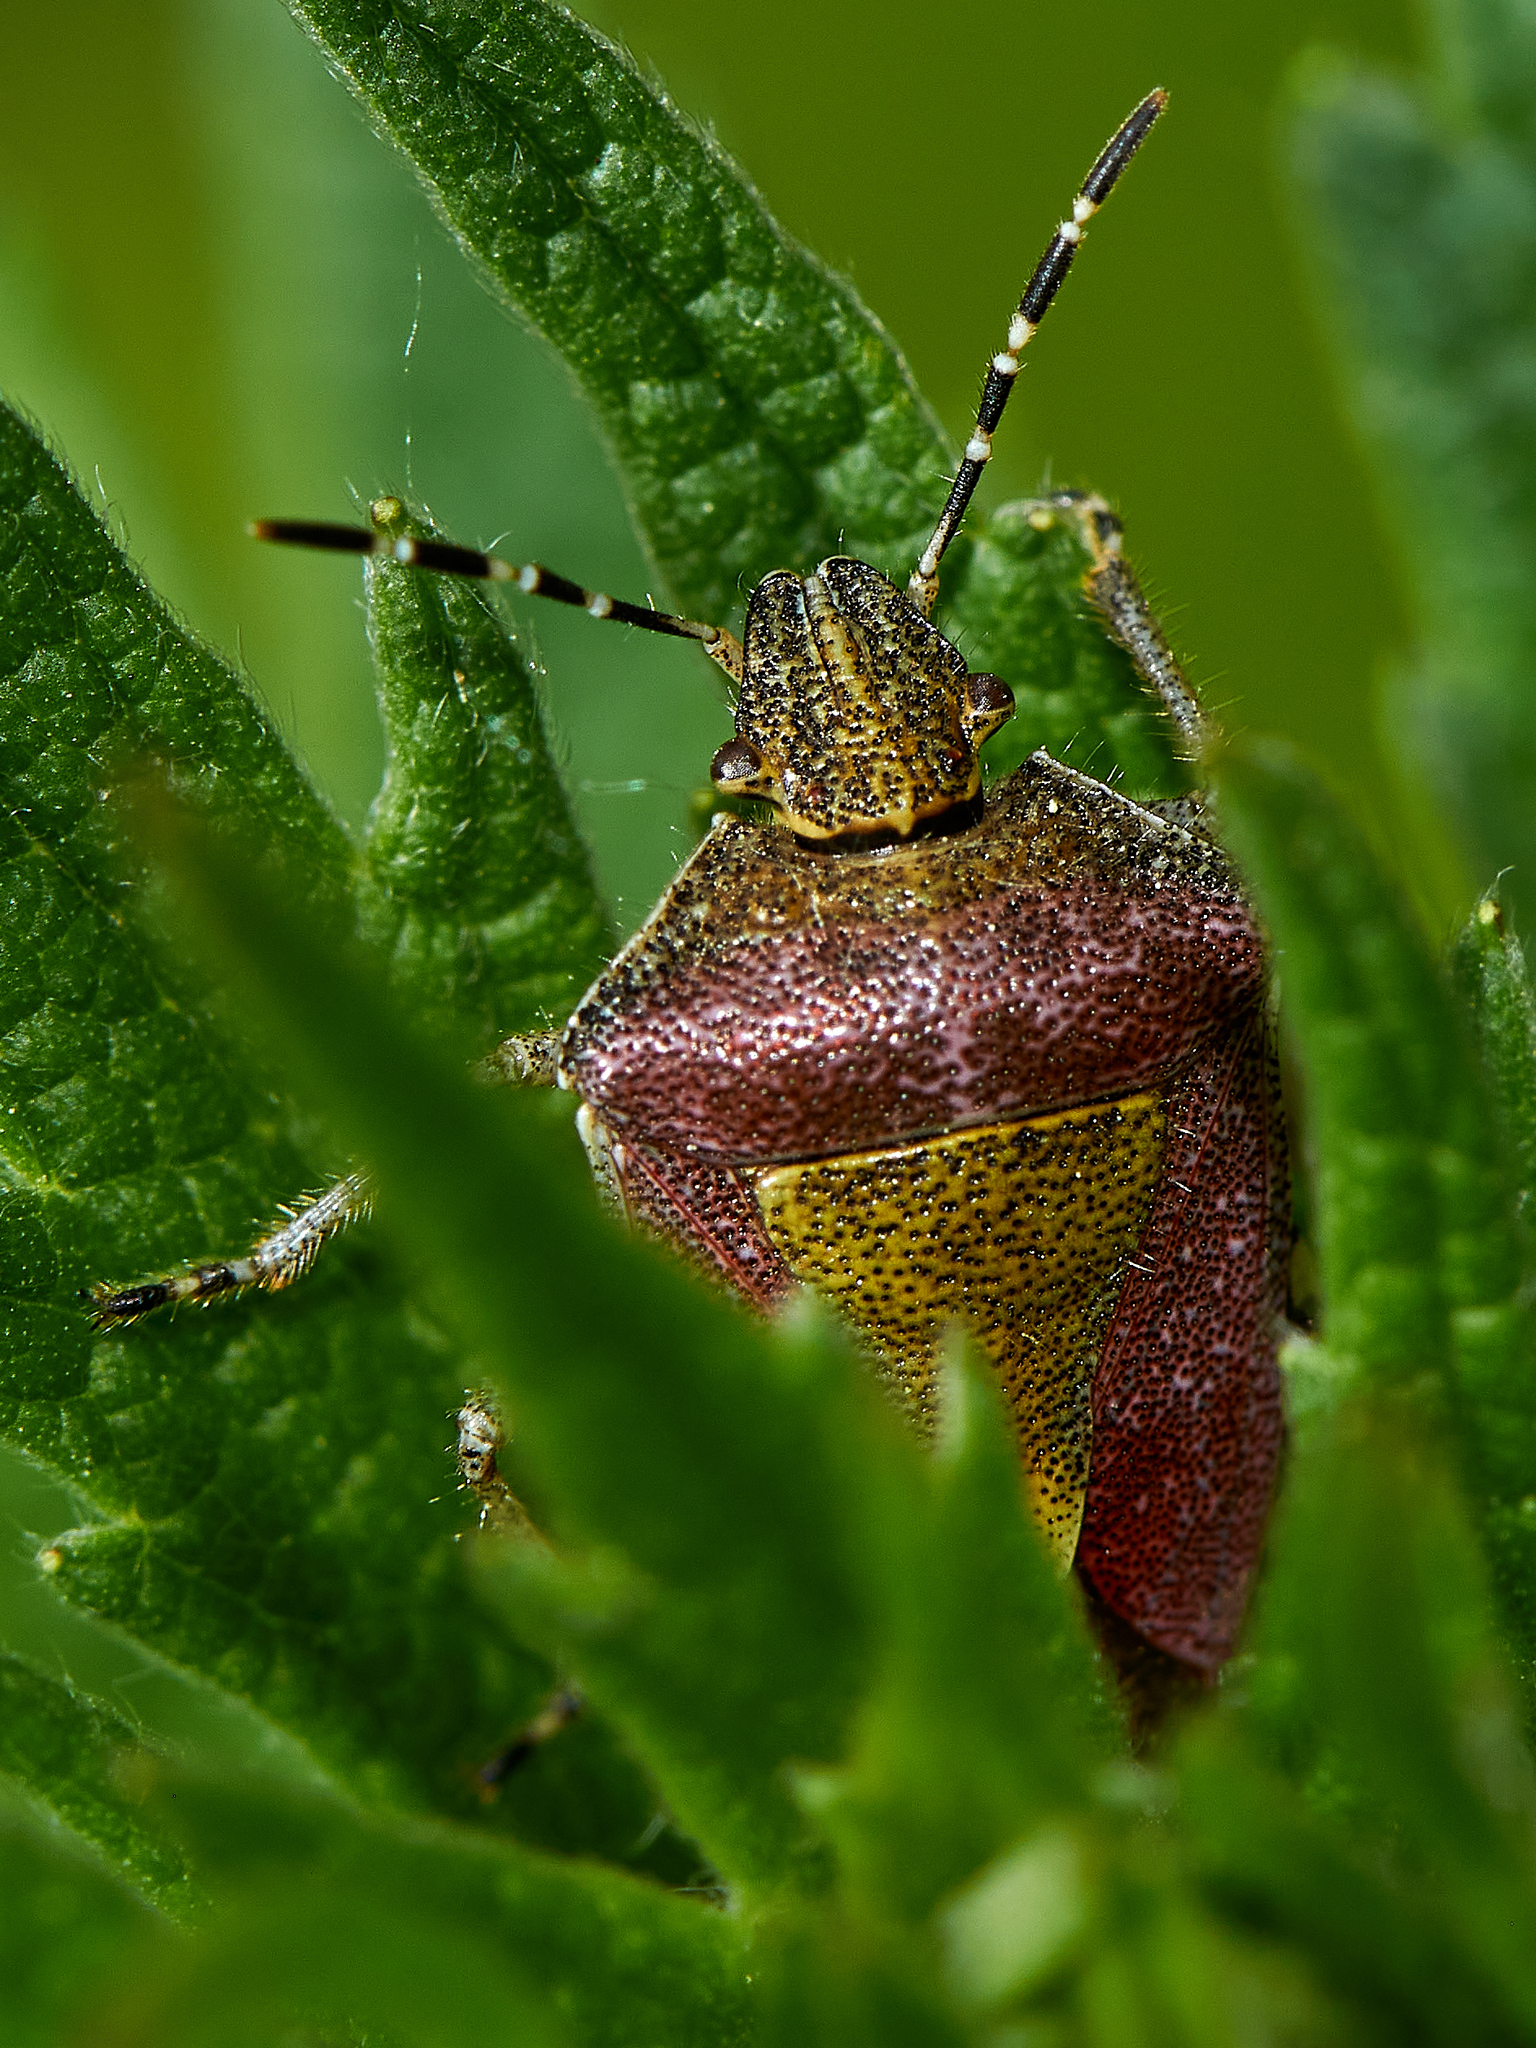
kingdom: Animalia
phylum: Arthropoda
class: Insecta
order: Hemiptera
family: Pentatomidae
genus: Dolycoris
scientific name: Dolycoris baccarum
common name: Sloe bug
